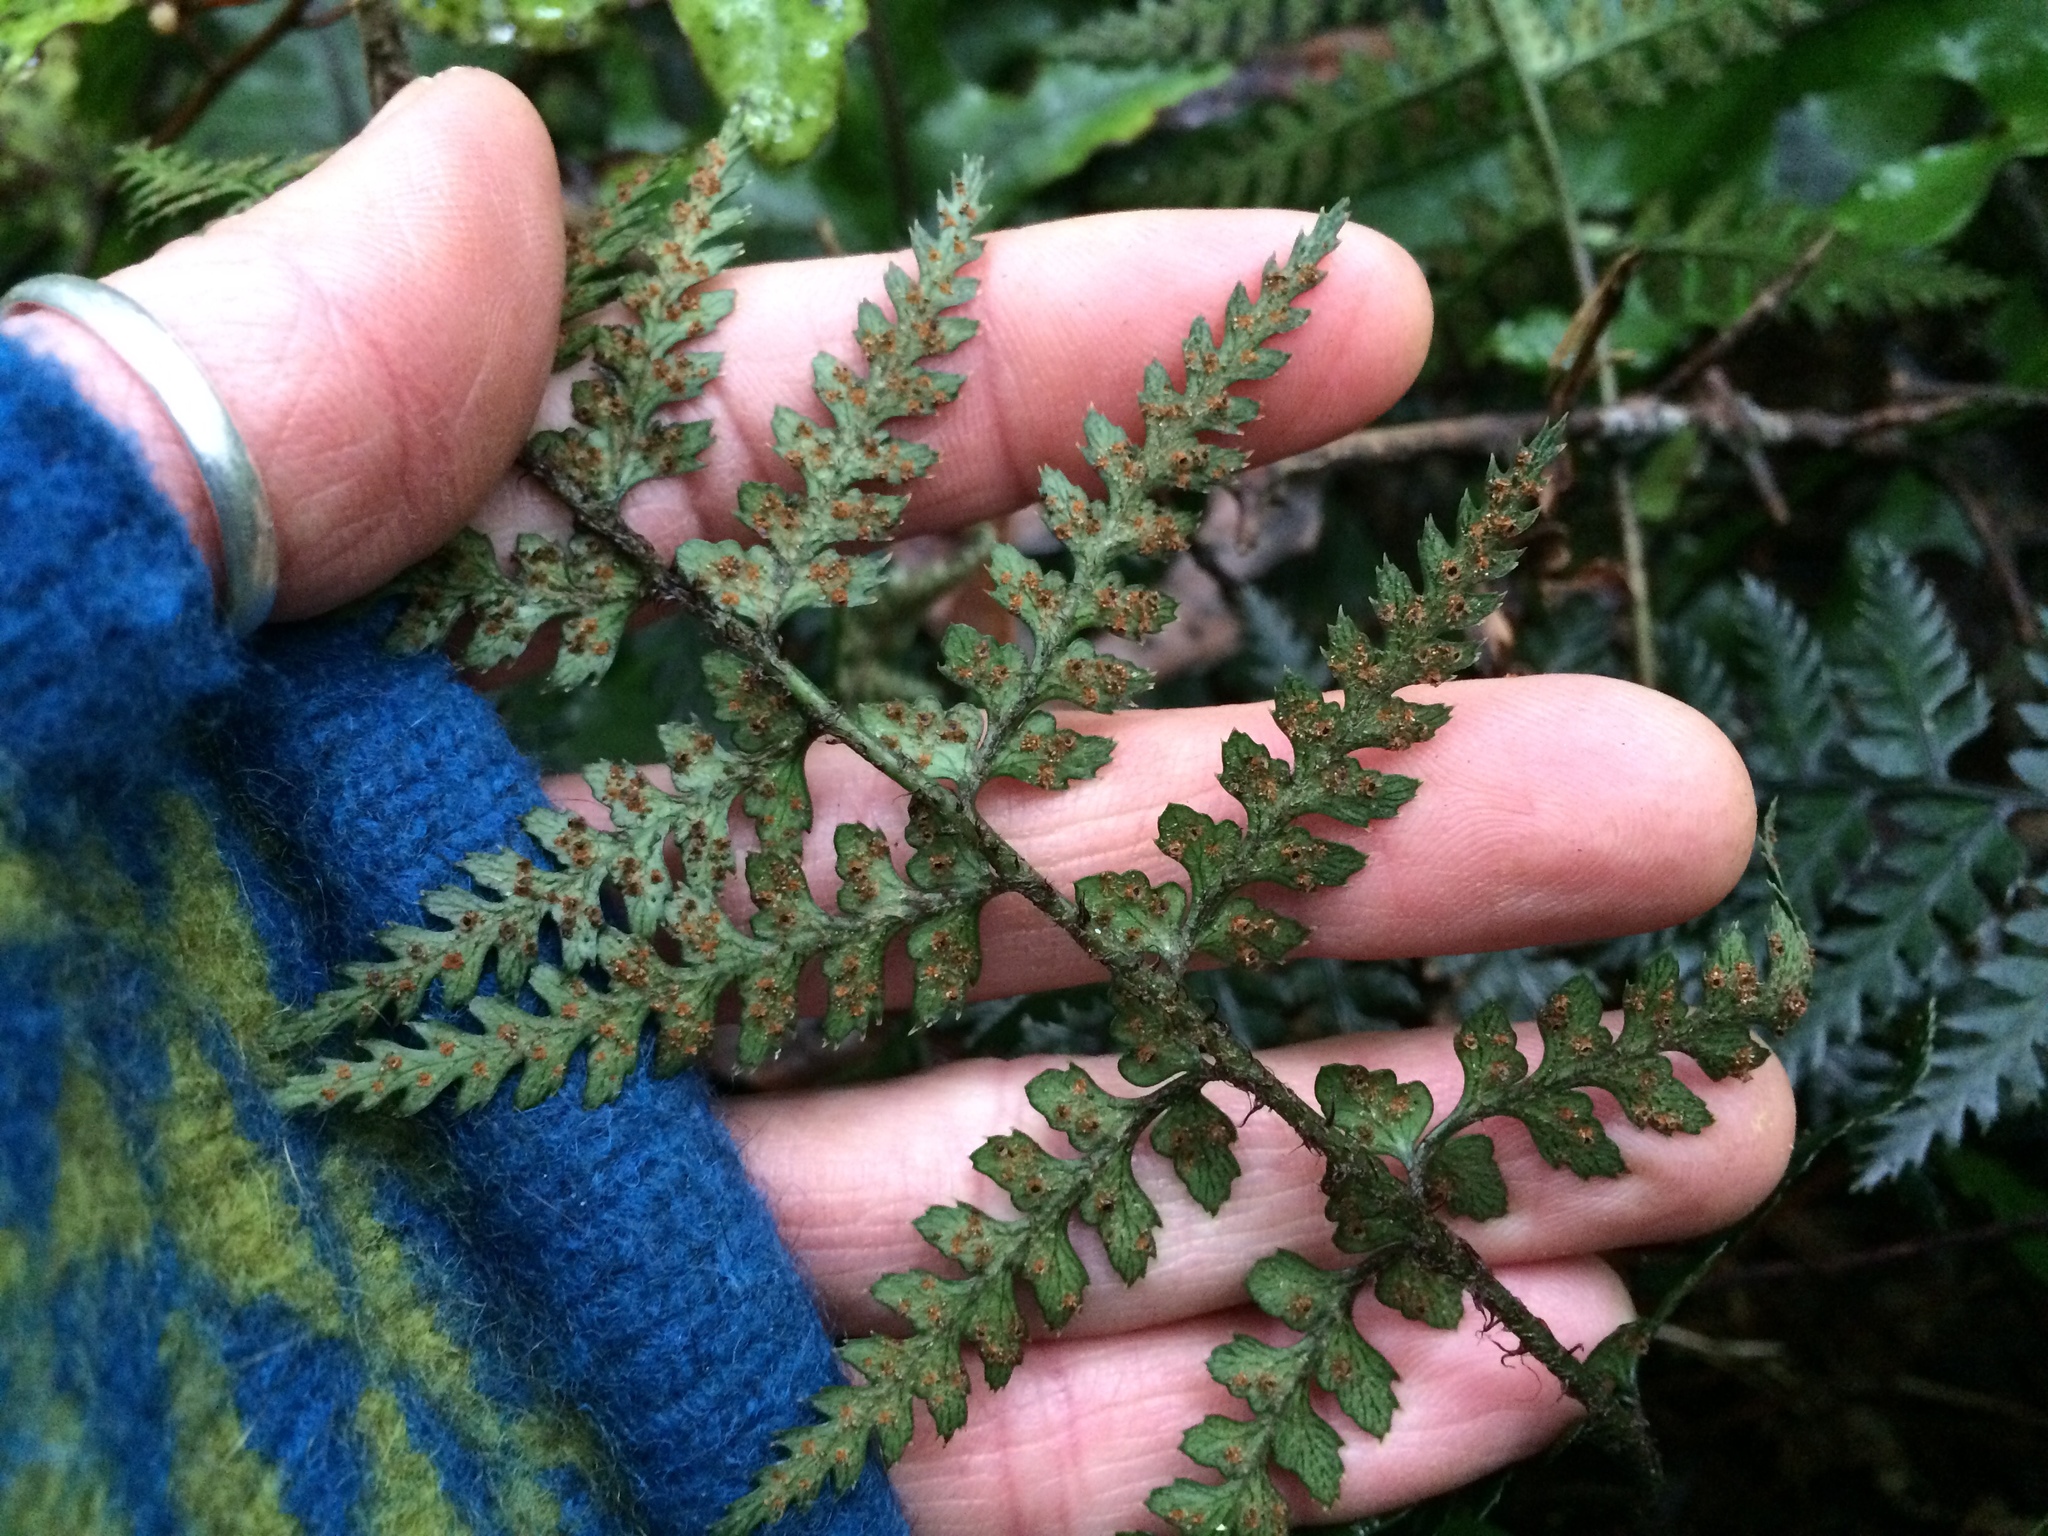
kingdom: Plantae
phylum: Tracheophyta
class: Polypodiopsida
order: Polypodiales
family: Dryopteridaceae
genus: Polystichum
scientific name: Polystichum neozelandicum
